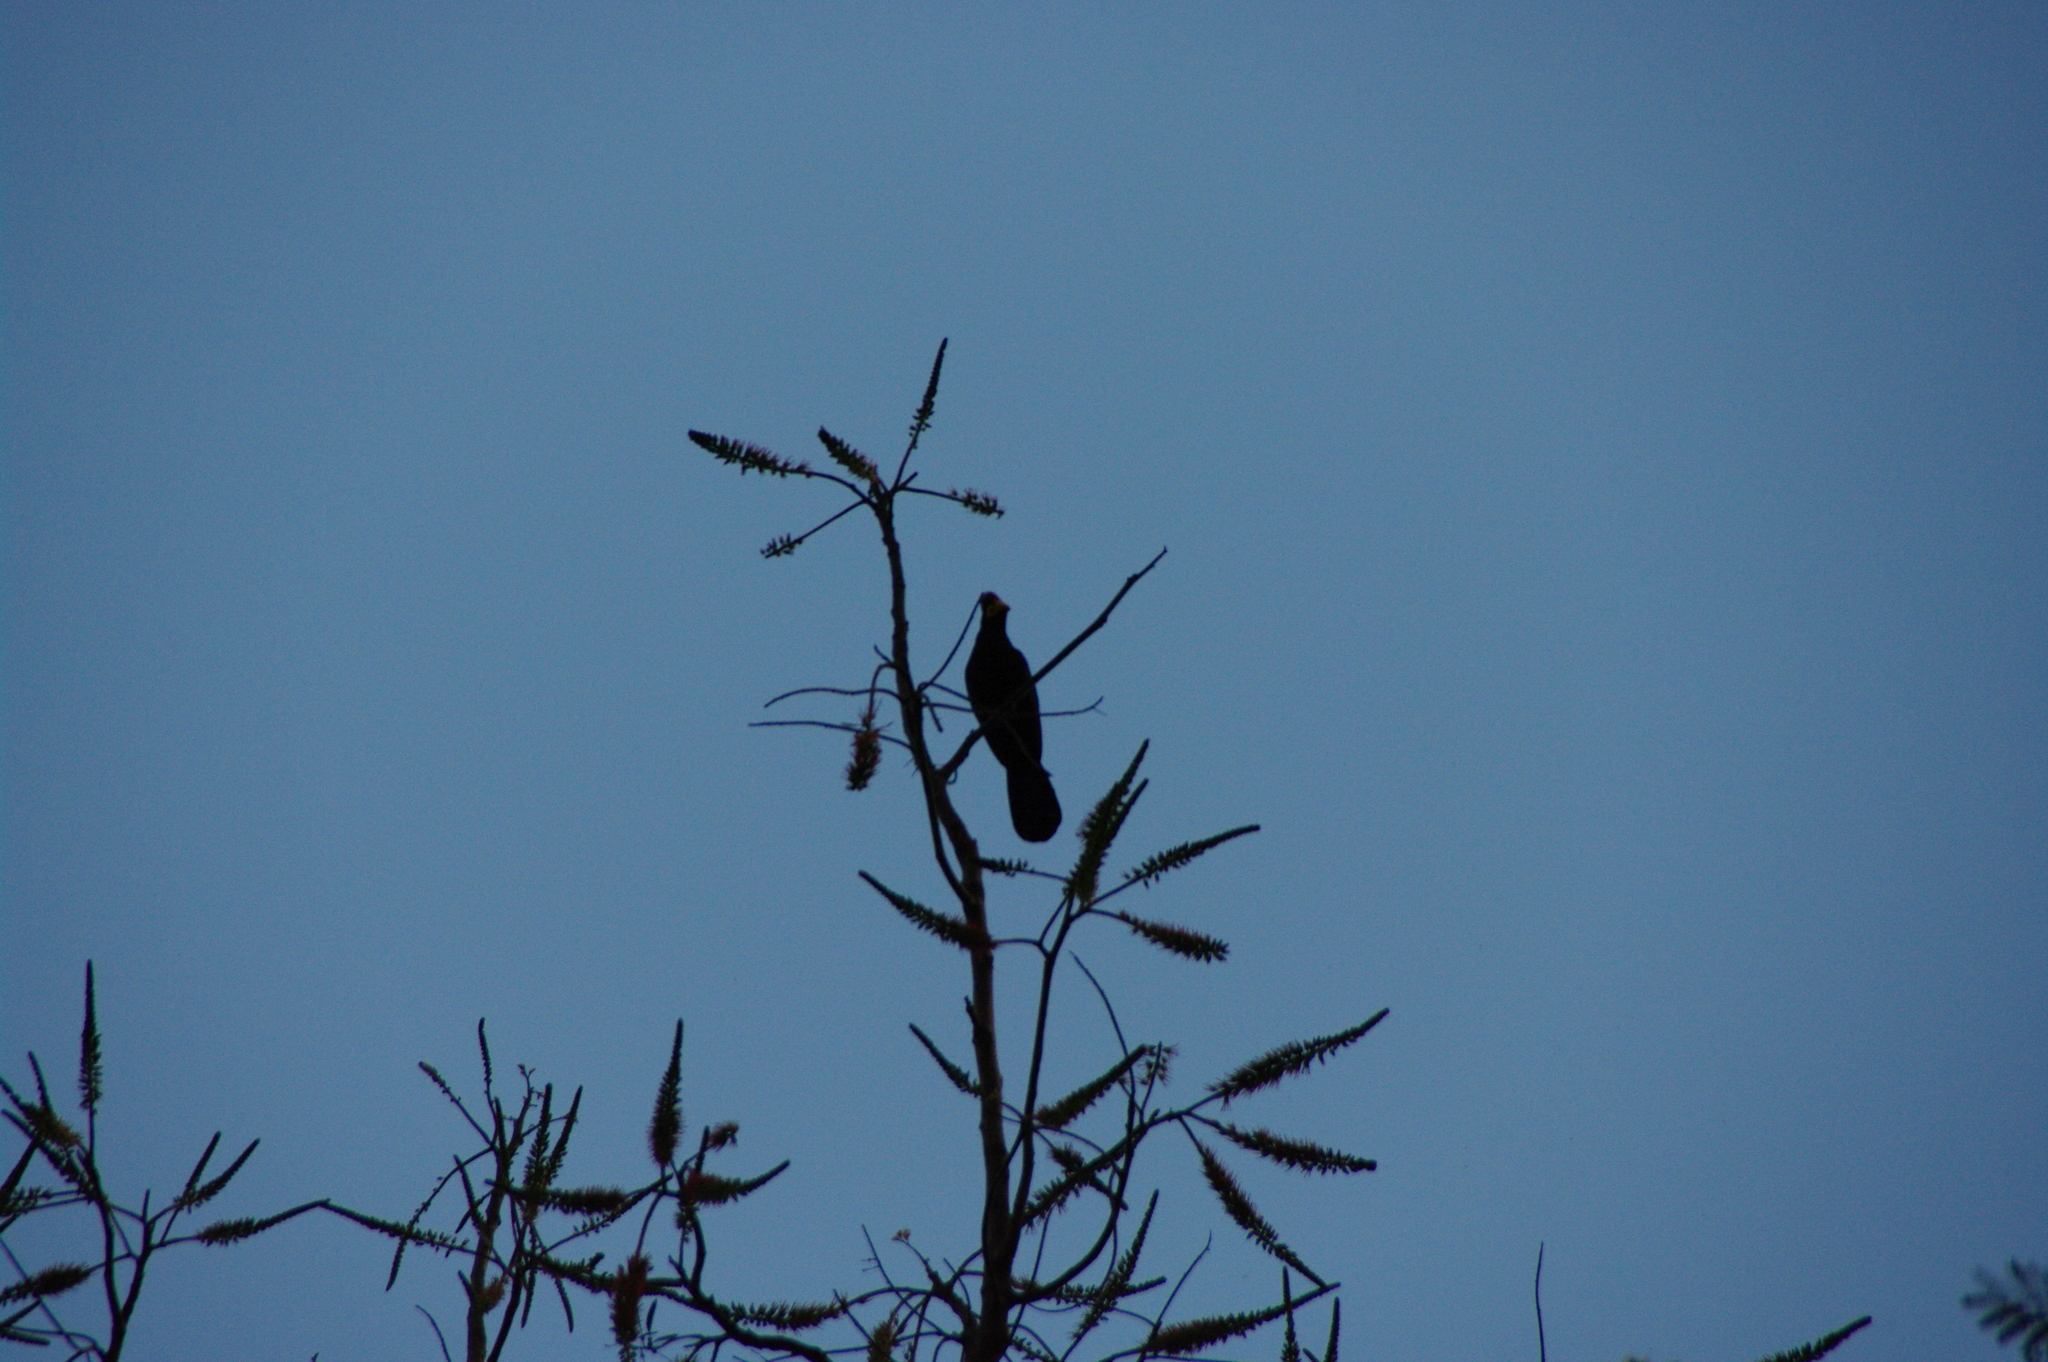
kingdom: Animalia
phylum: Chordata
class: Aves
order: Musophagiformes
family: Musophagidae
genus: Musophaga
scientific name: Musophaga rossae
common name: Ross's turaco
